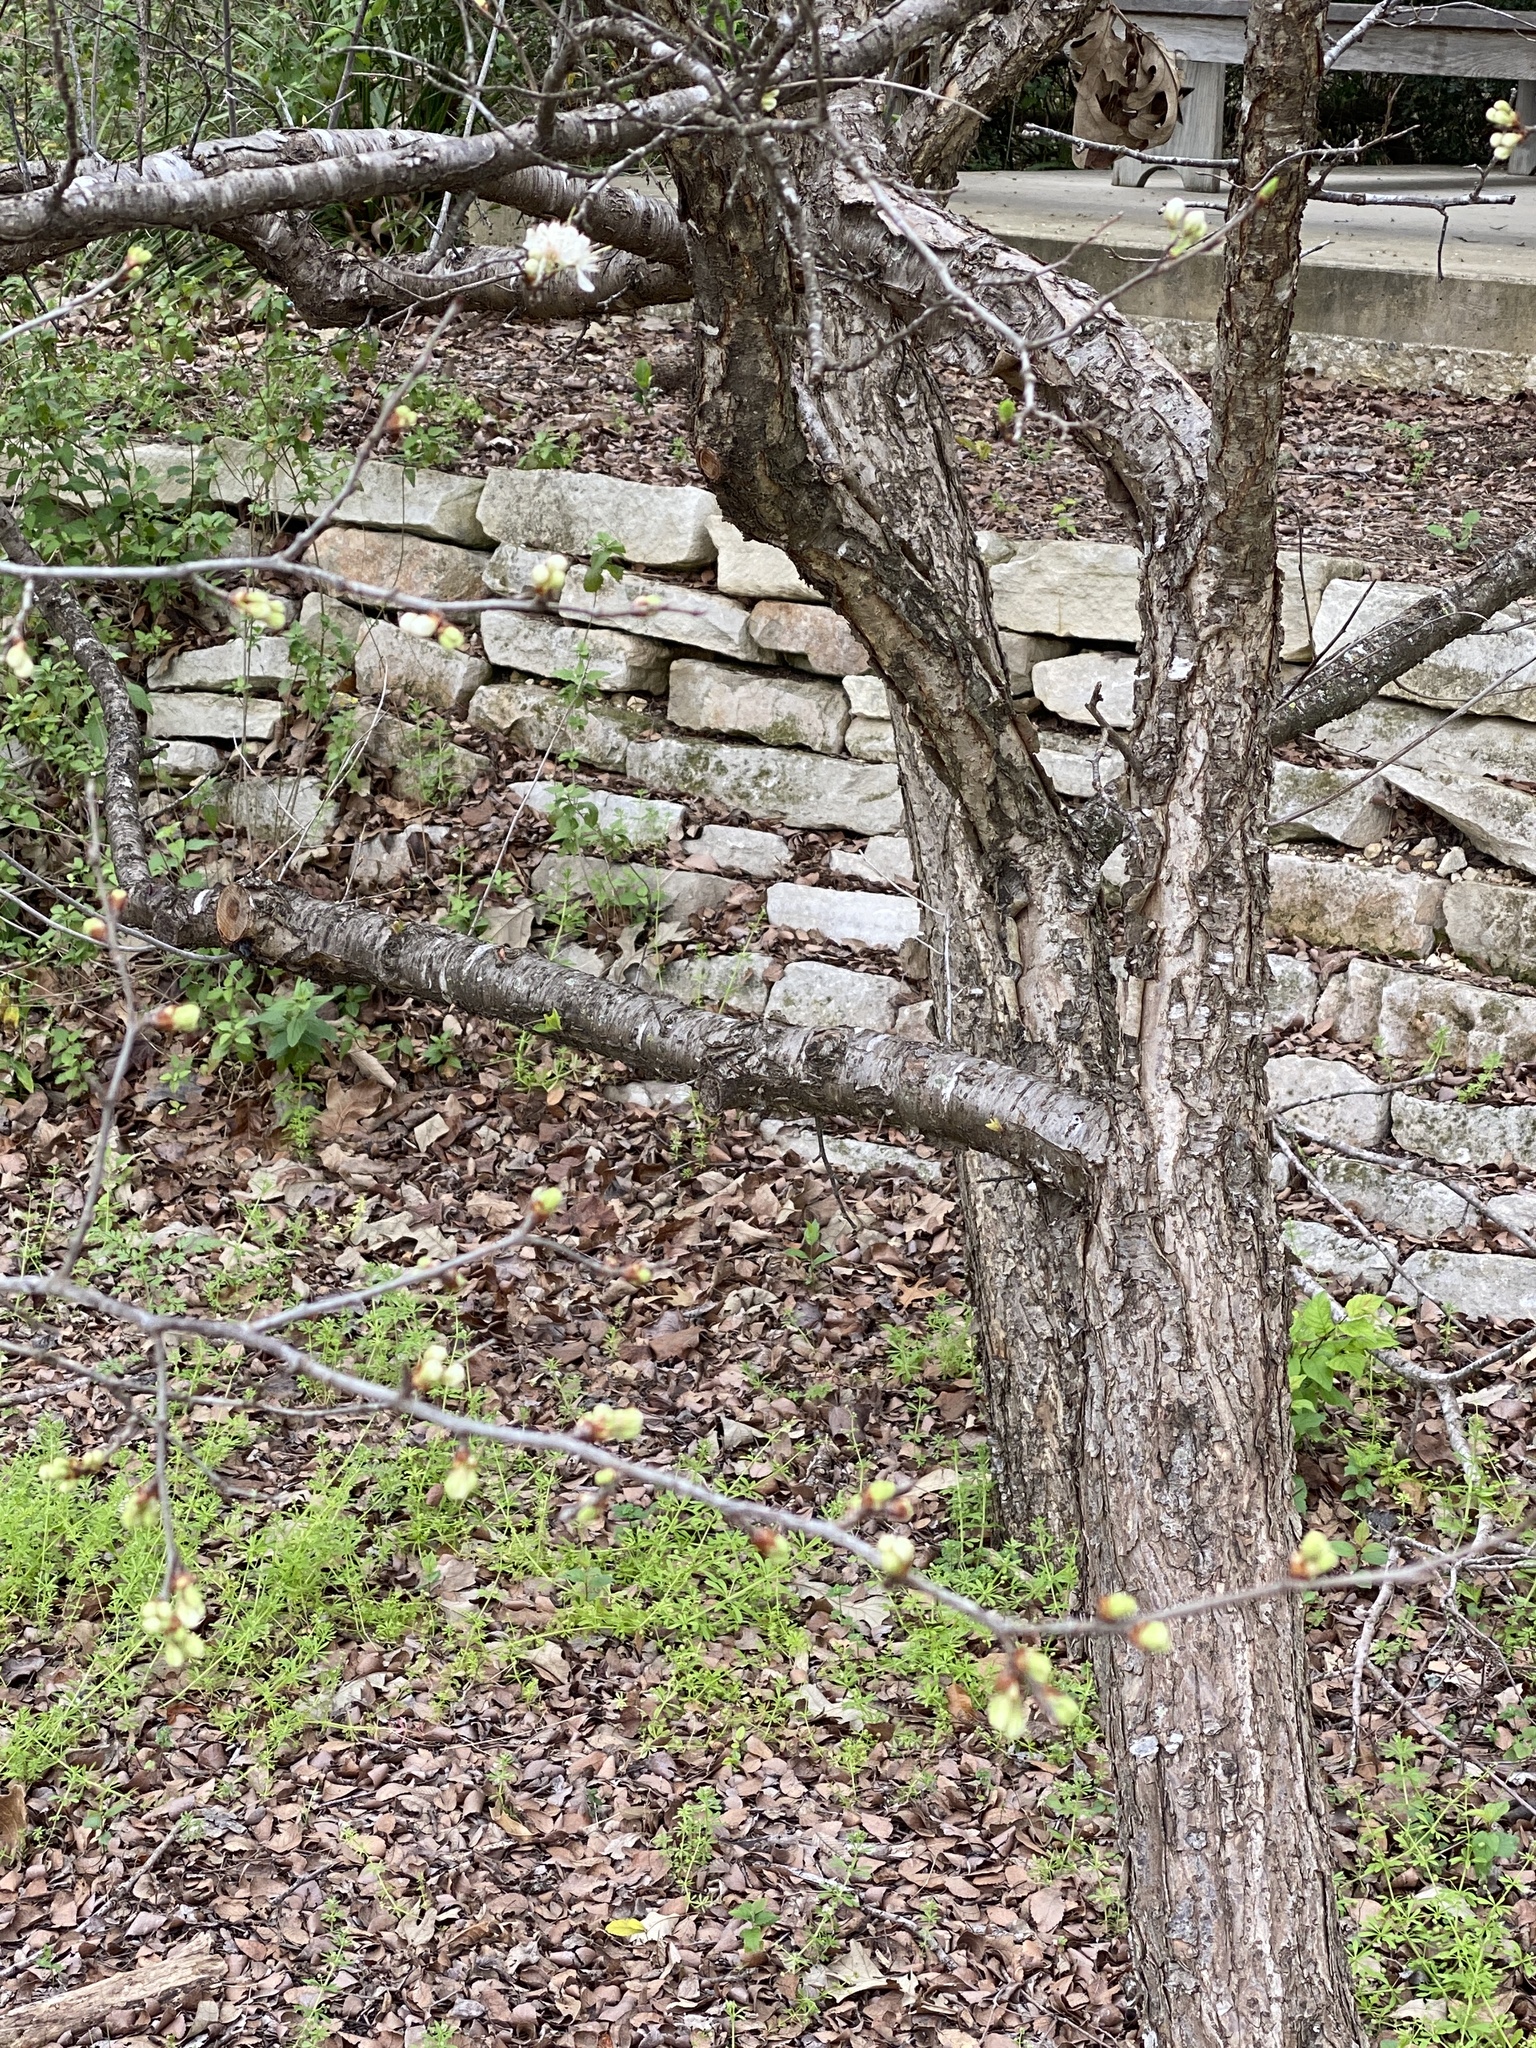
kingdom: Plantae
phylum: Tracheophyta
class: Magnoliopsida
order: Rosales
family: Rosaceae
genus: Prunus
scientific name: Prunus mexicana
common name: Mexican plum
